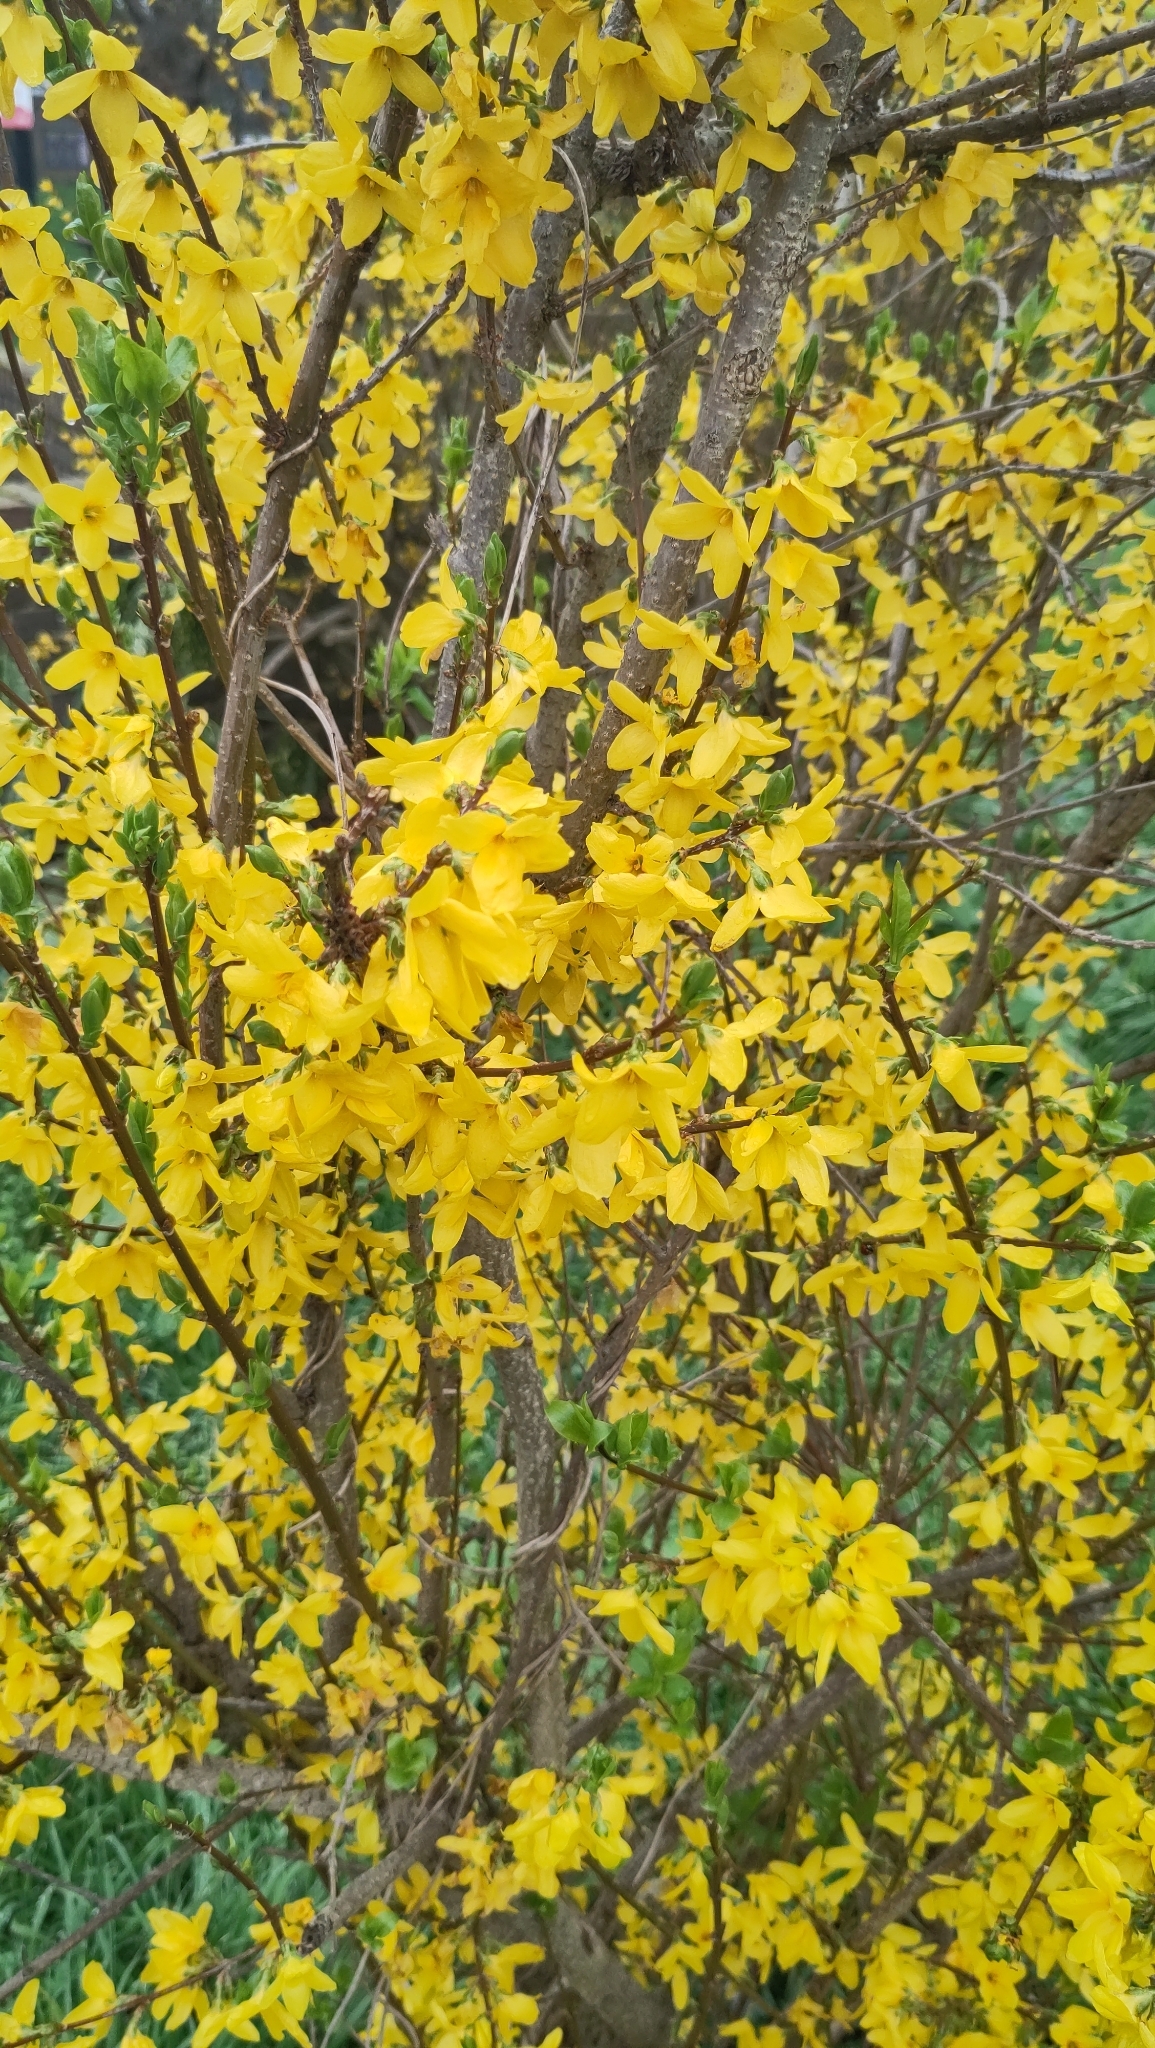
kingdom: Plantae
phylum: Tracheophyta
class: Magnoliopsida
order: Lamiales
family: Oleaceae
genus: Forsythia
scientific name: Forsythia intermedia
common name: Forsythia
